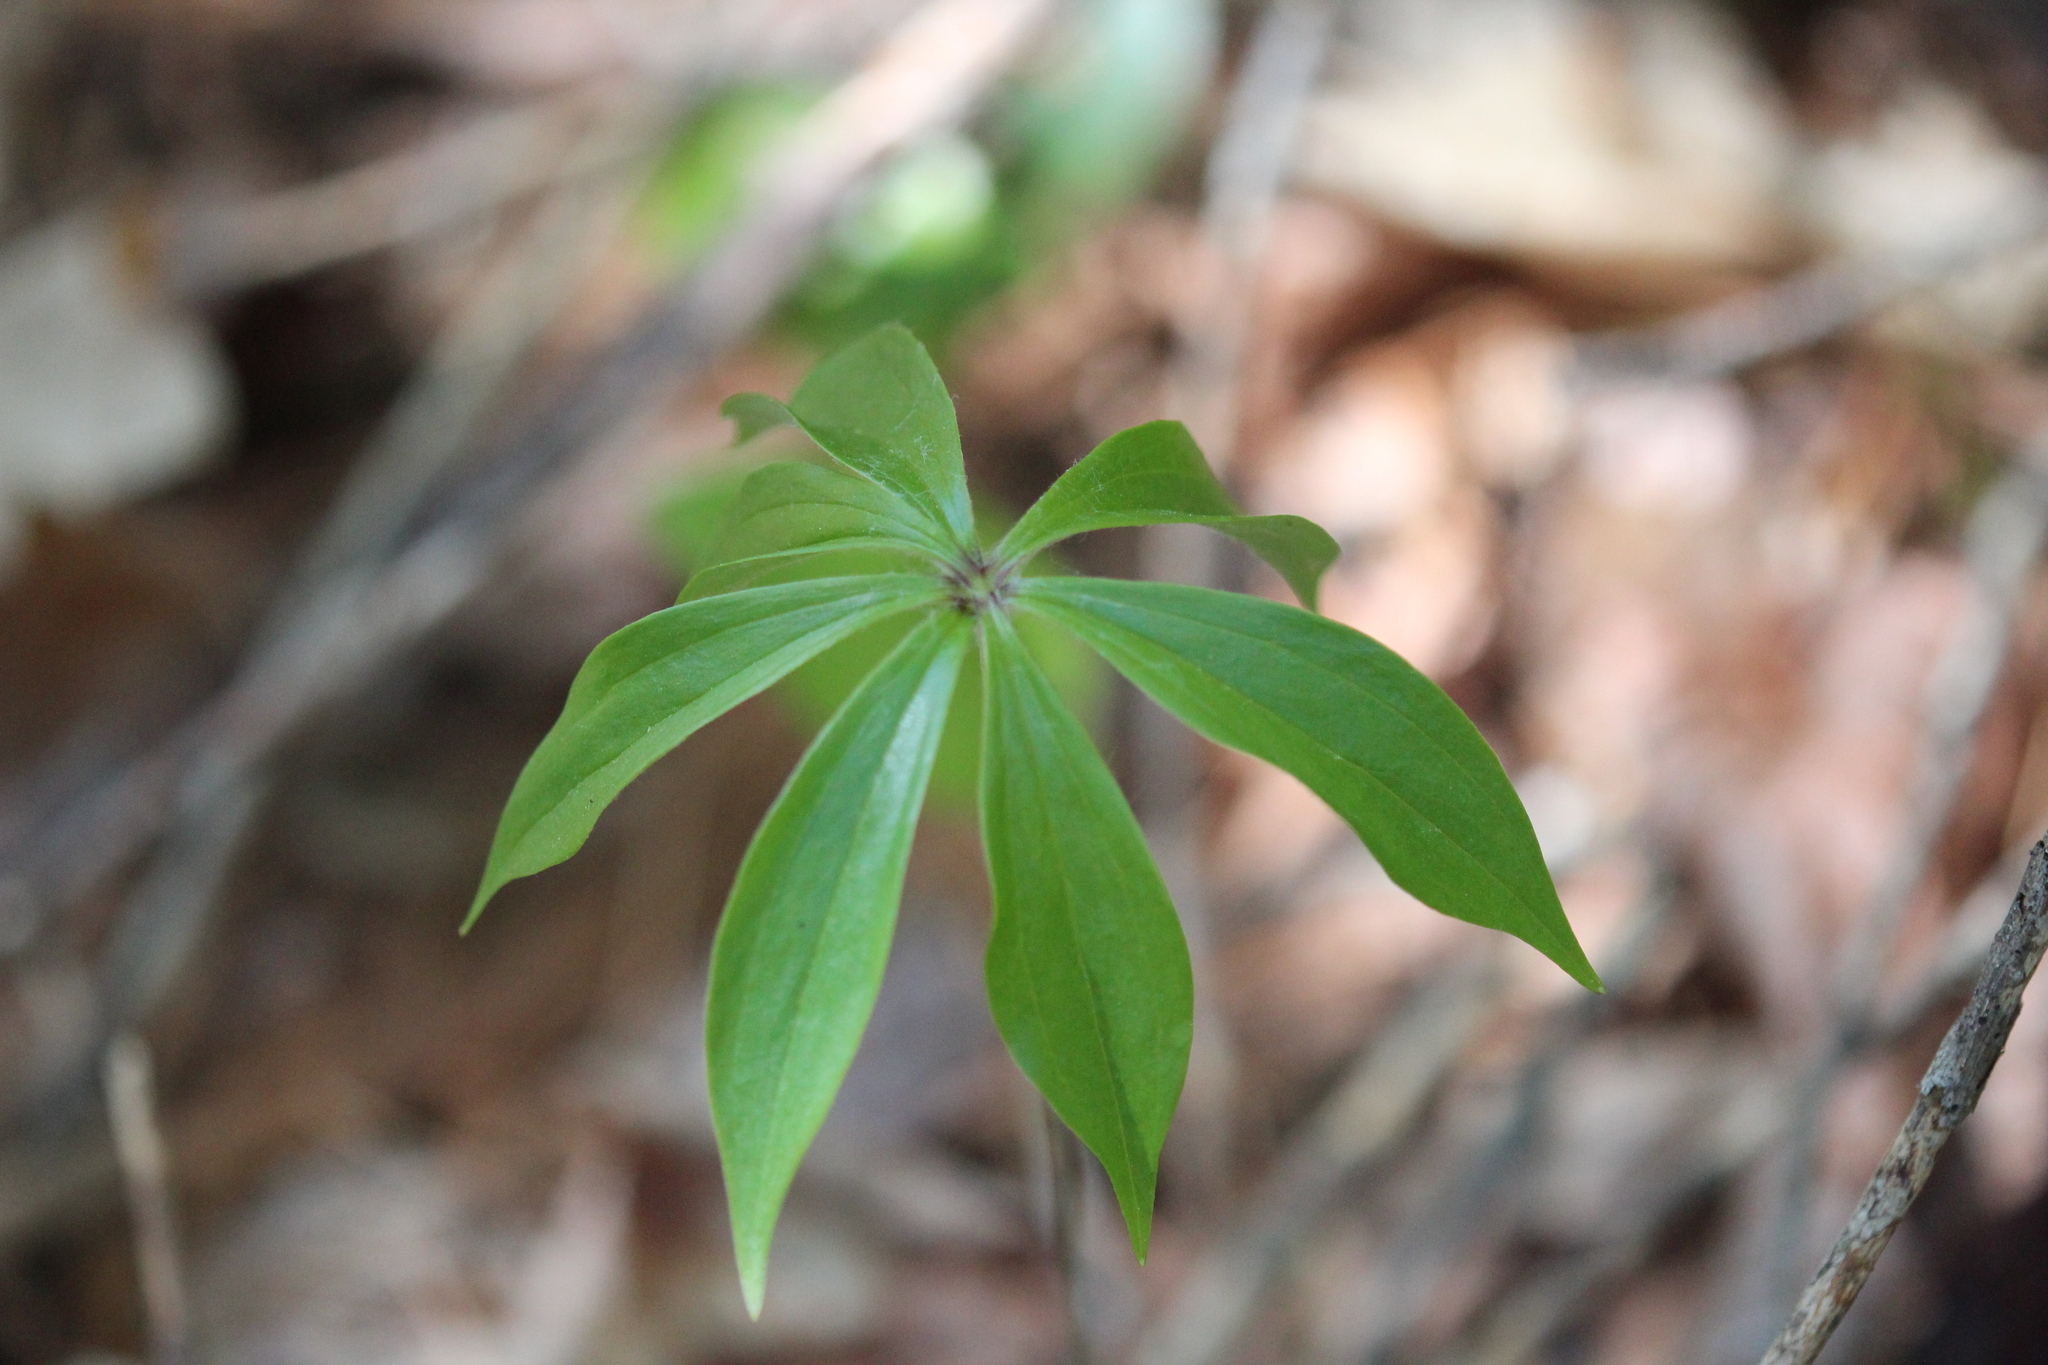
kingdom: Plantae
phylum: Tracheophyta
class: Liliopsida
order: Liliales
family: Liliaceae
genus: Medeola
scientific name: Medeola virginiana
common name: Indian cucumber-root
